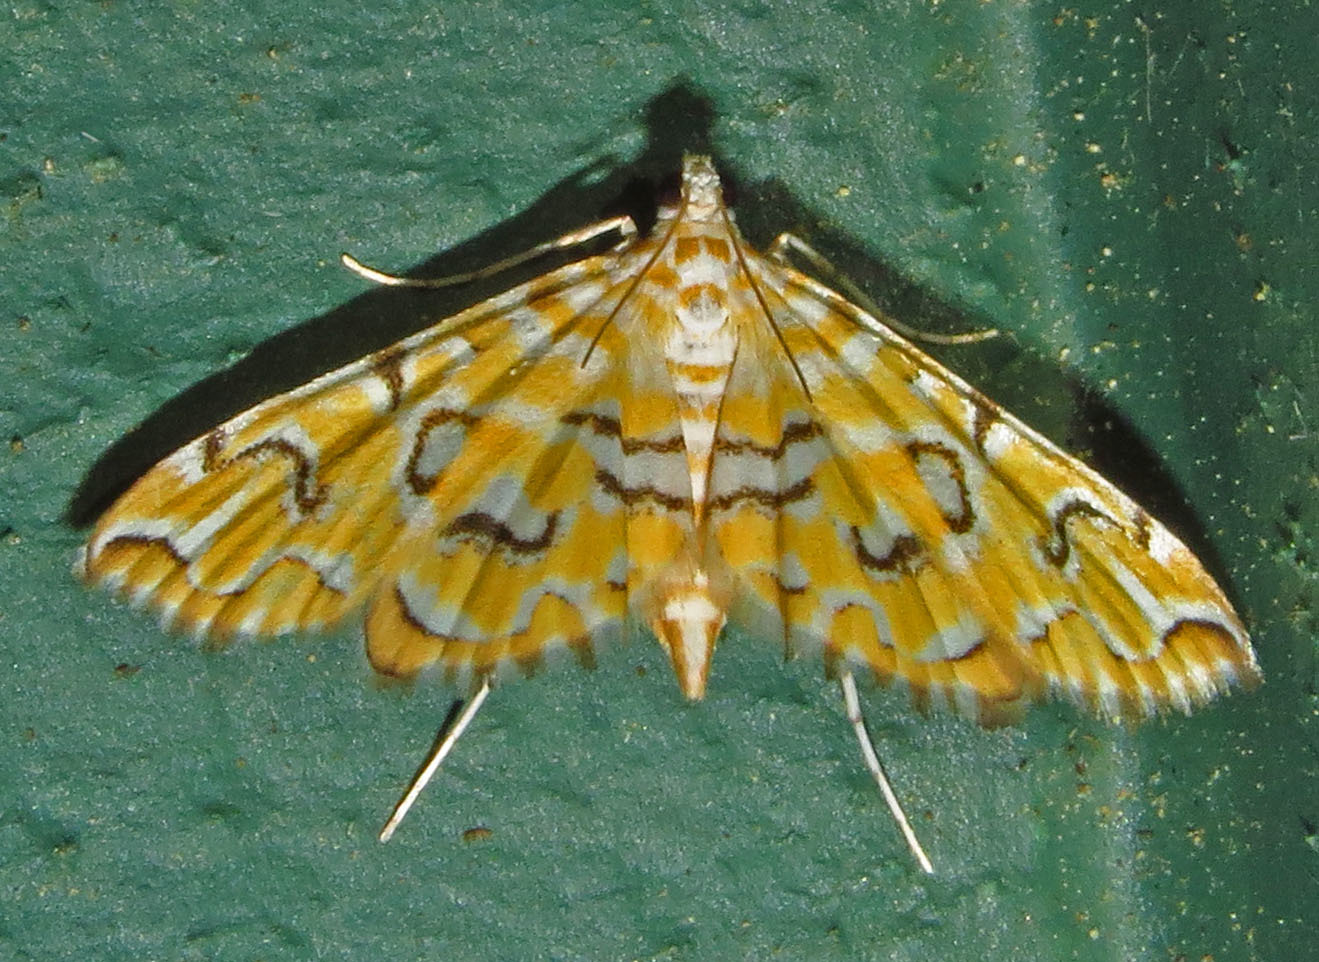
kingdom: Animalia
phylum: Arthropoda
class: Insecta
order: Lepidoptera
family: Crambidae
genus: Elophila
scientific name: Elophila icciusalis
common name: Pondside pyralid moth
